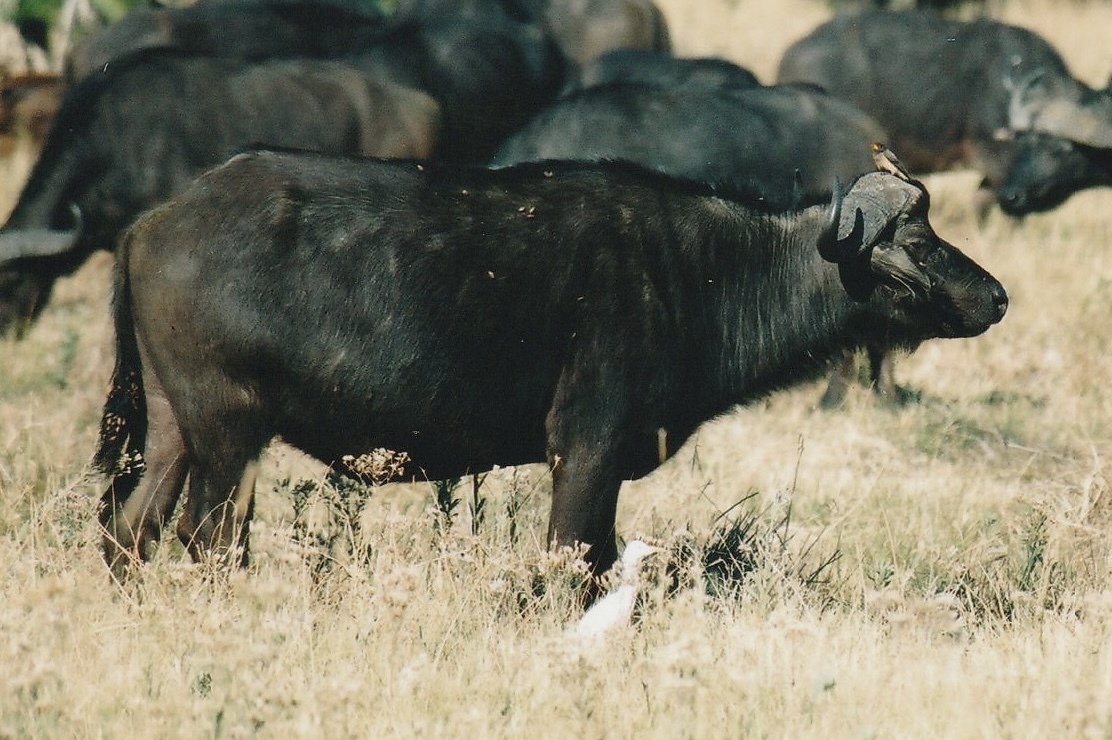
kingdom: Animalia
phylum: Chordata
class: Mammalia
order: Artiodactyla
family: Bovidae
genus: Syncerus
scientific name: Syncerus caffer
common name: African buffalo
